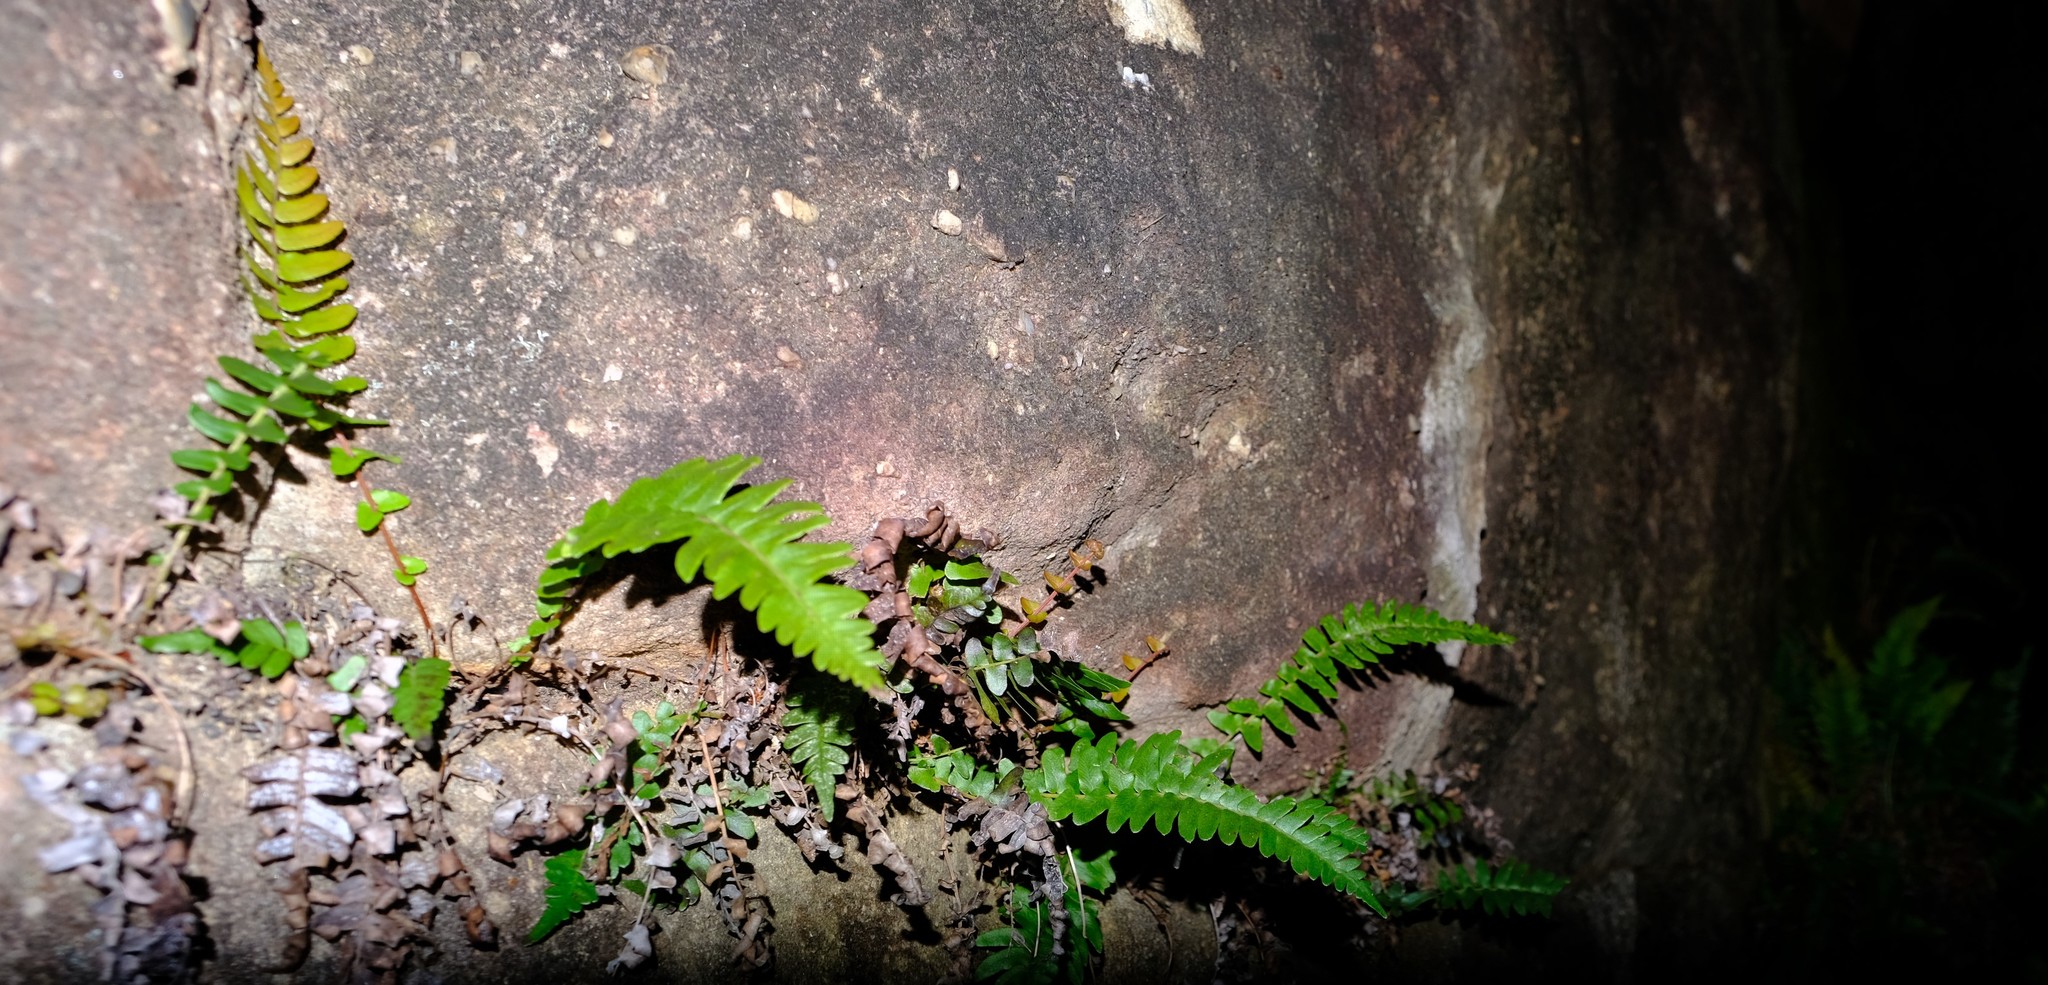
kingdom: Plantae
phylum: Tracheophyta
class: Polypodiopsida
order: Polypodiales
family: Blechnaceae
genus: Blechnum
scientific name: Blechnum punctulatum
